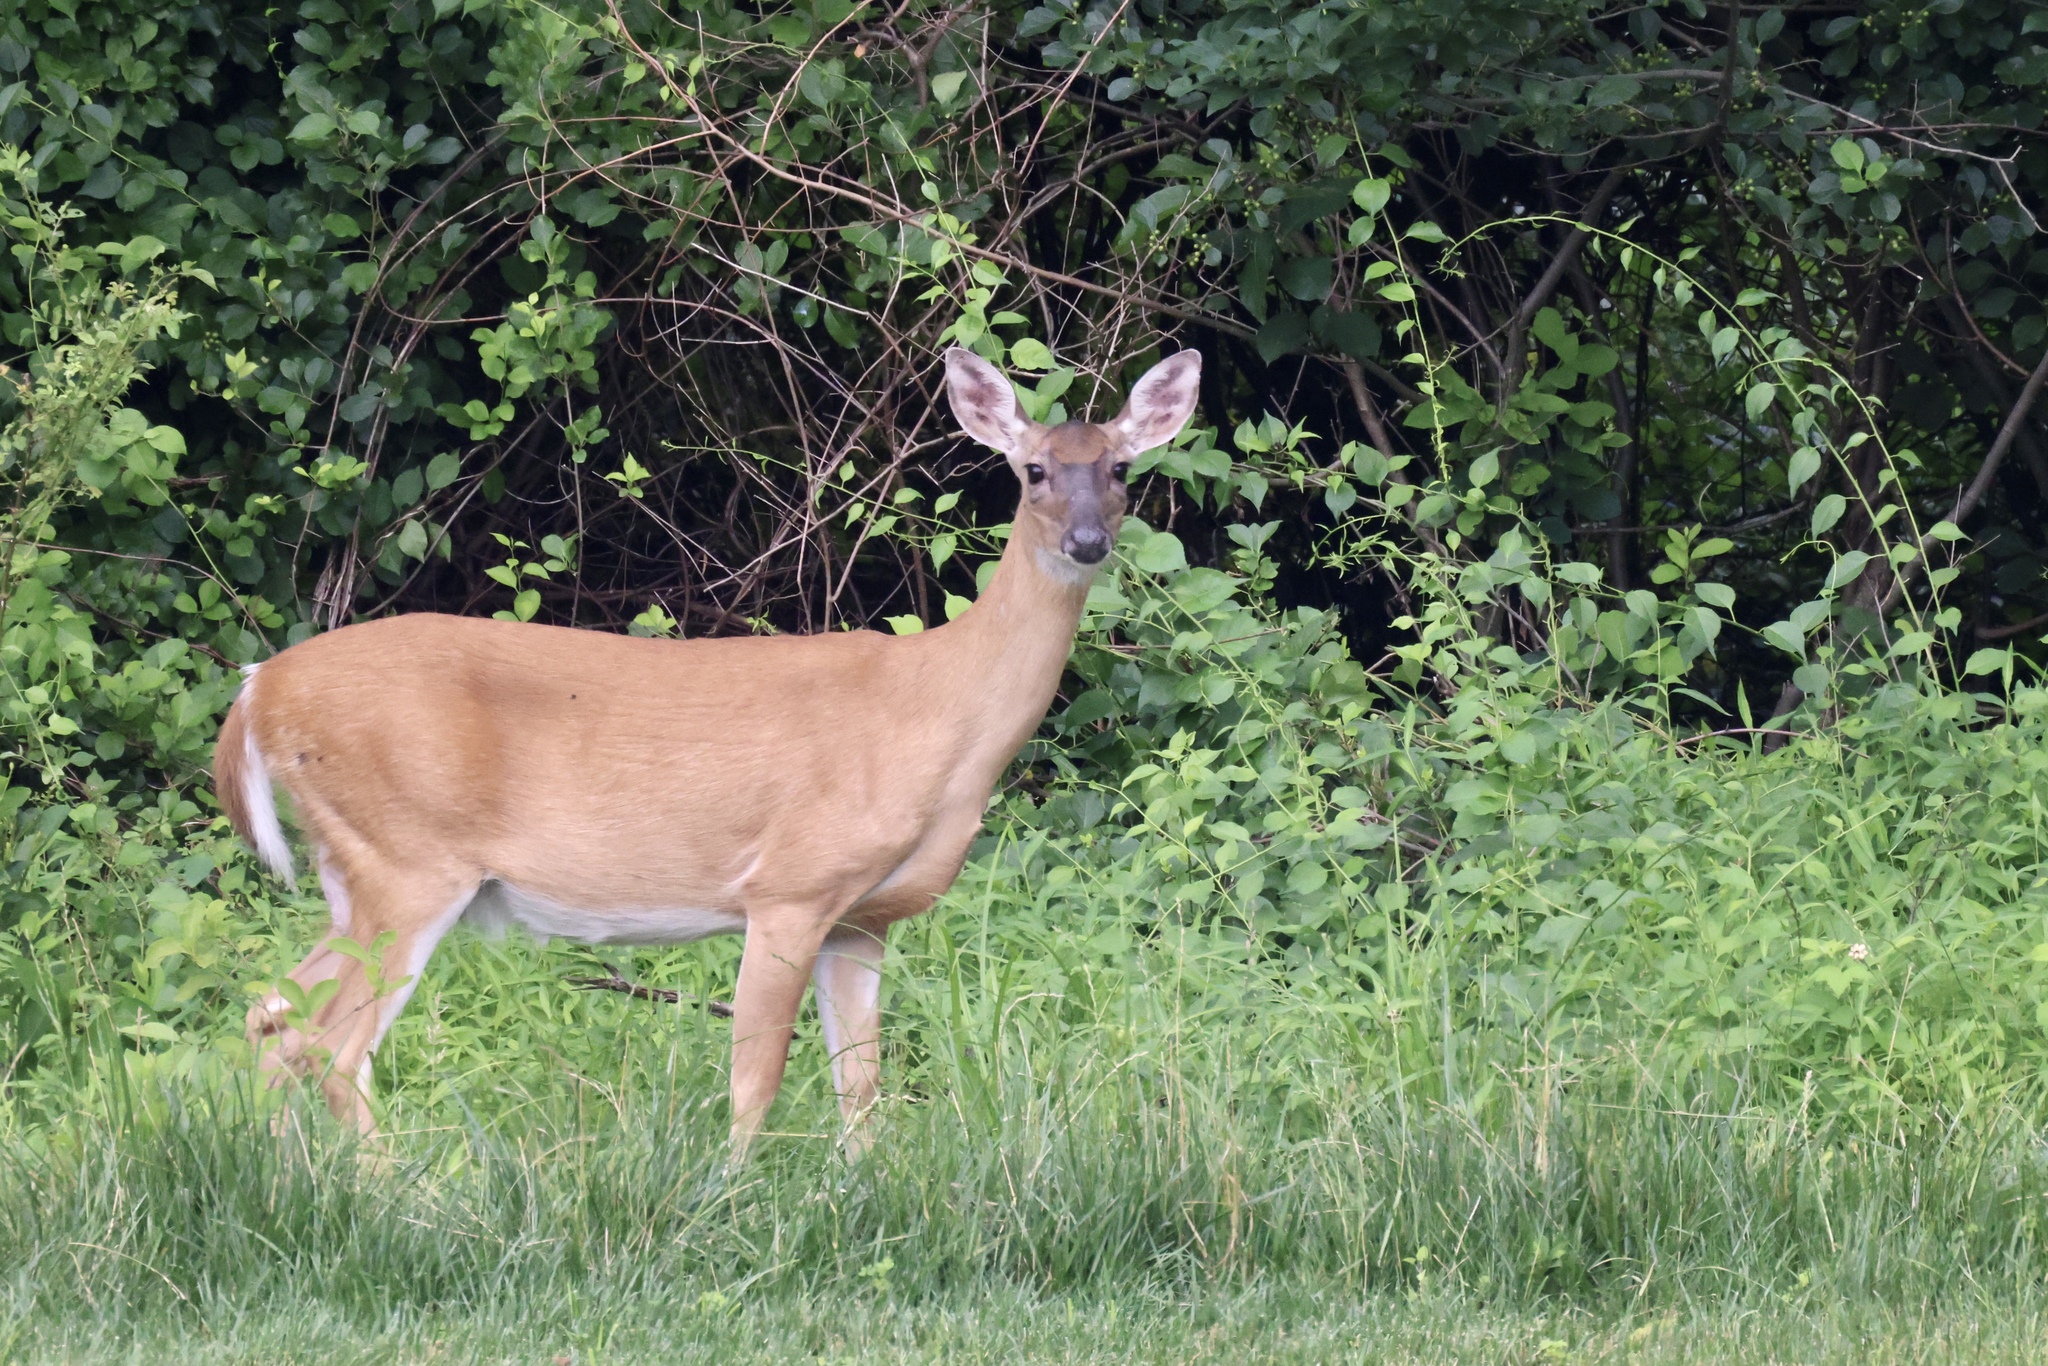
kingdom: Animalia
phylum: Chordata
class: Mammalia
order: Artiodactyla
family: Cervidae
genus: Odocoileus
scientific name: Odocoileus virginianus
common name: White-tailed deer
